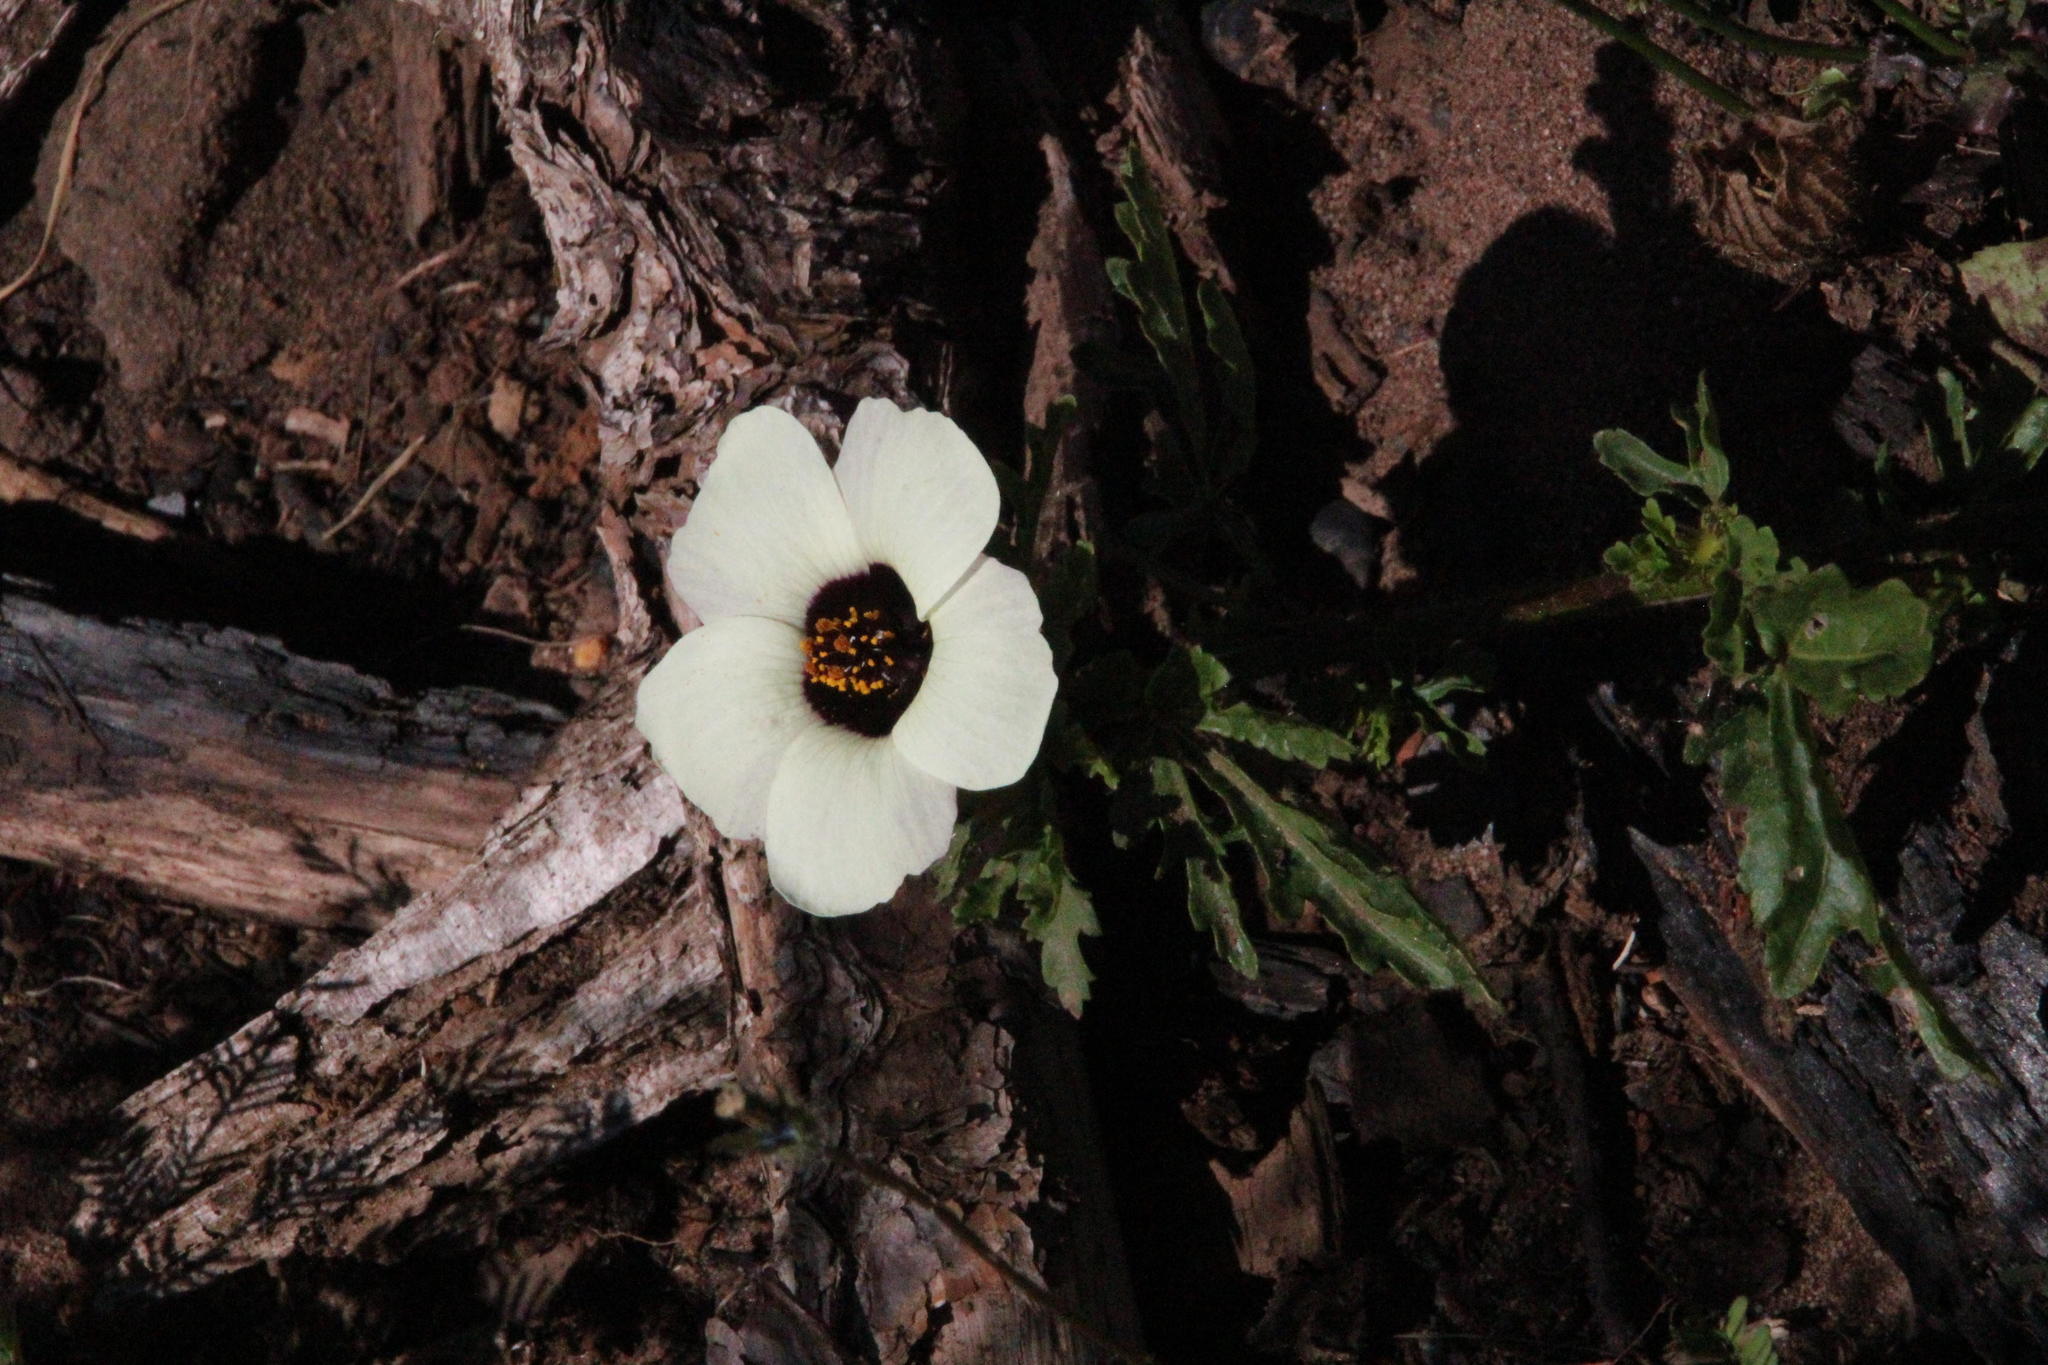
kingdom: Plantae
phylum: Tracheophyta
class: Magnoliopsida
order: Malvales
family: Malvaceae
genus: Hibiscus
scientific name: Hibiscus trionum
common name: Bladder ketmia
